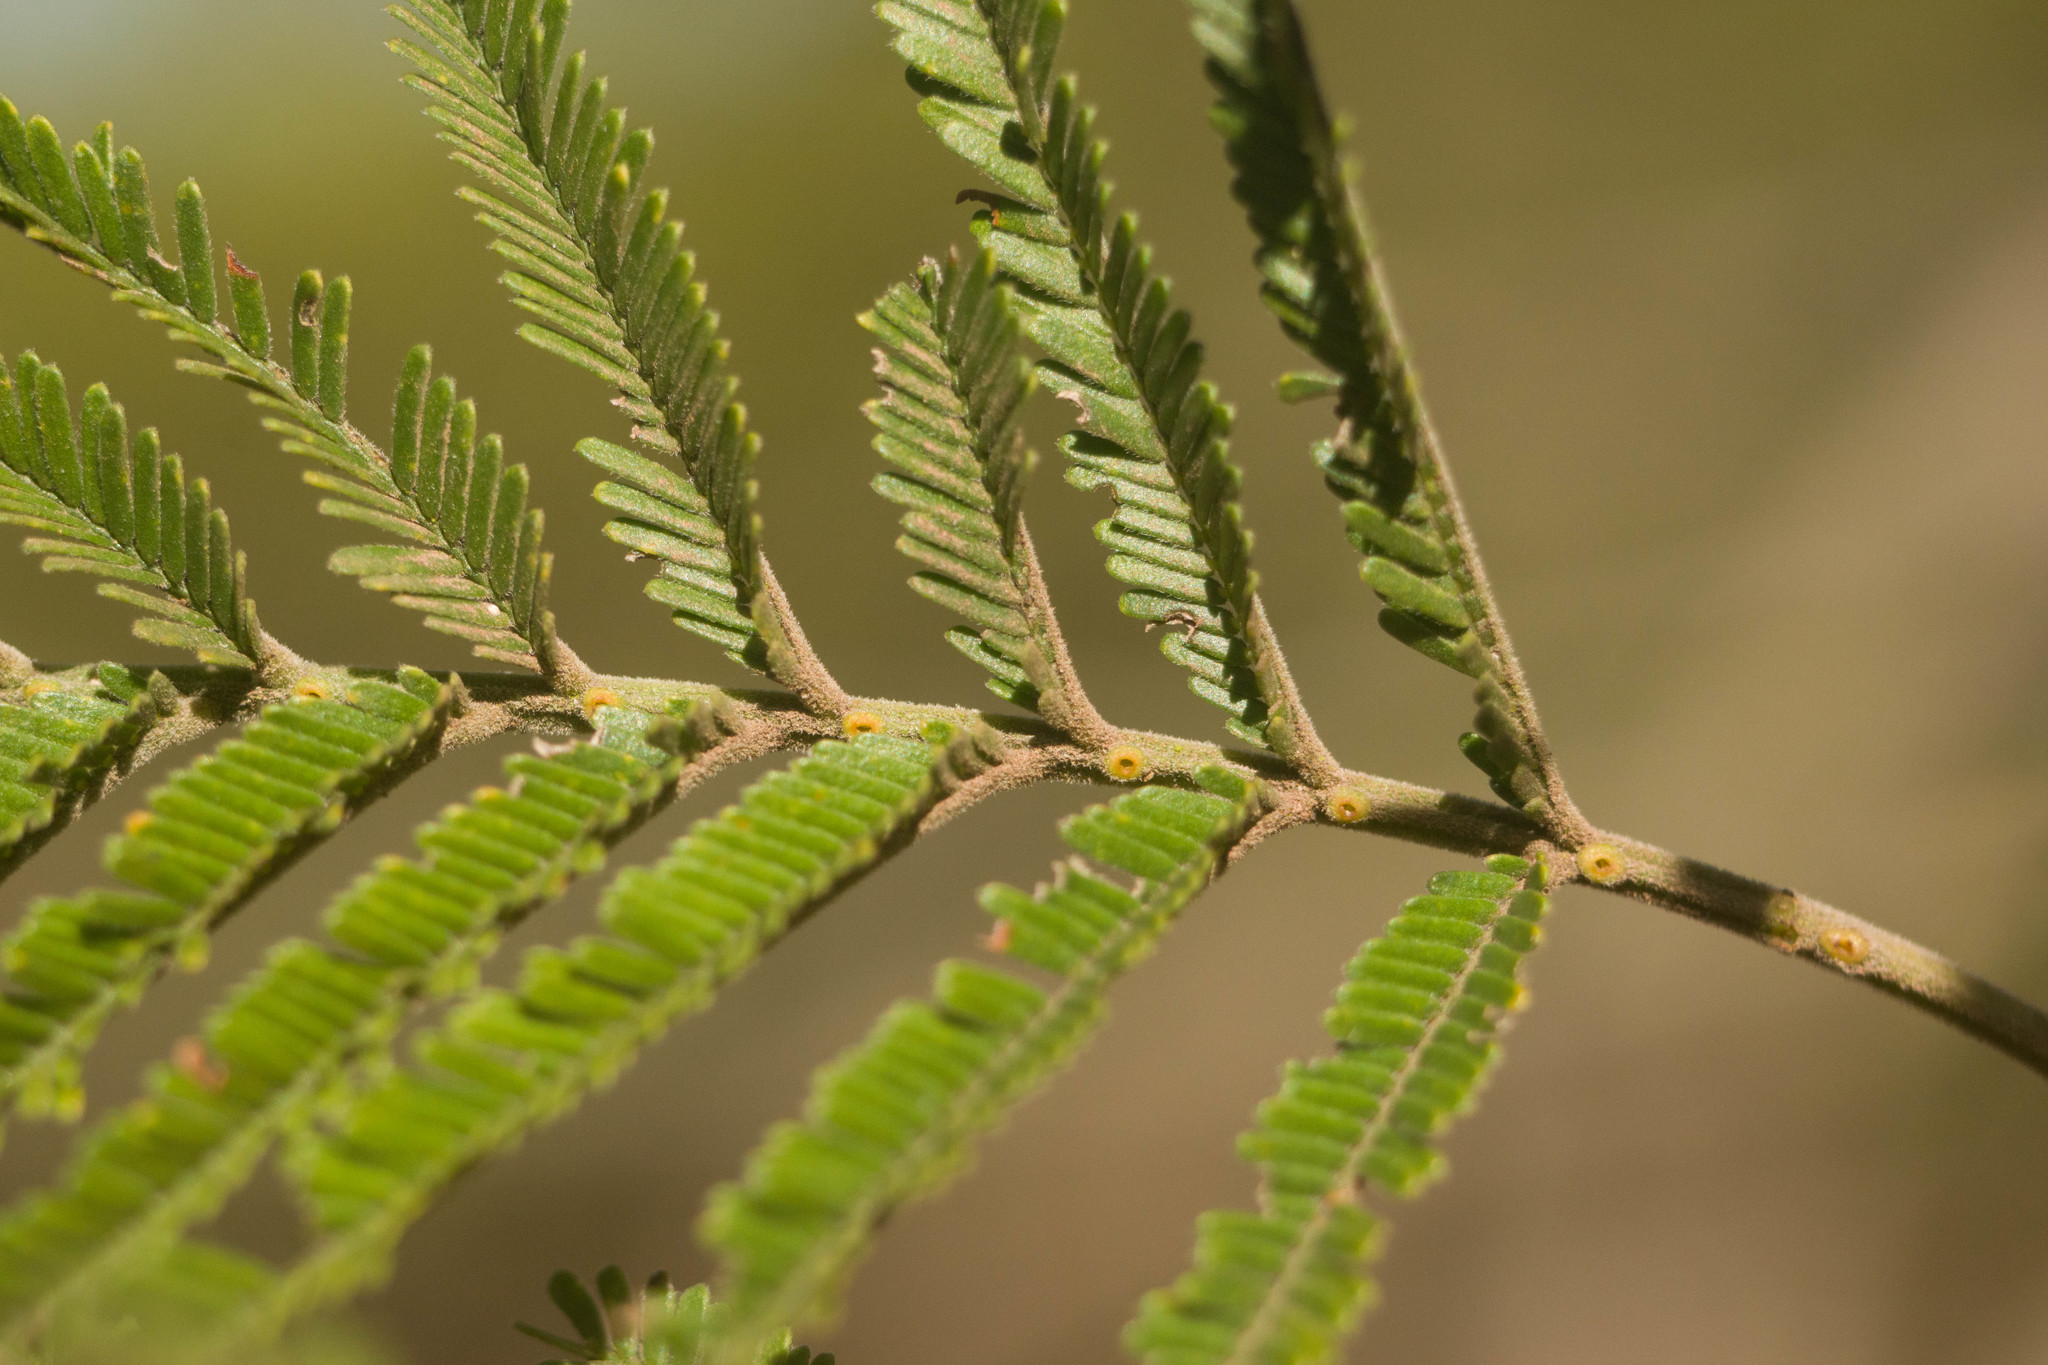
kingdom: Plantae
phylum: Tracheophyta
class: Magnoliopsida
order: Fabales
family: Fabaceae
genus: Acacia
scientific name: Acacia mearnsii
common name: Black wattle
